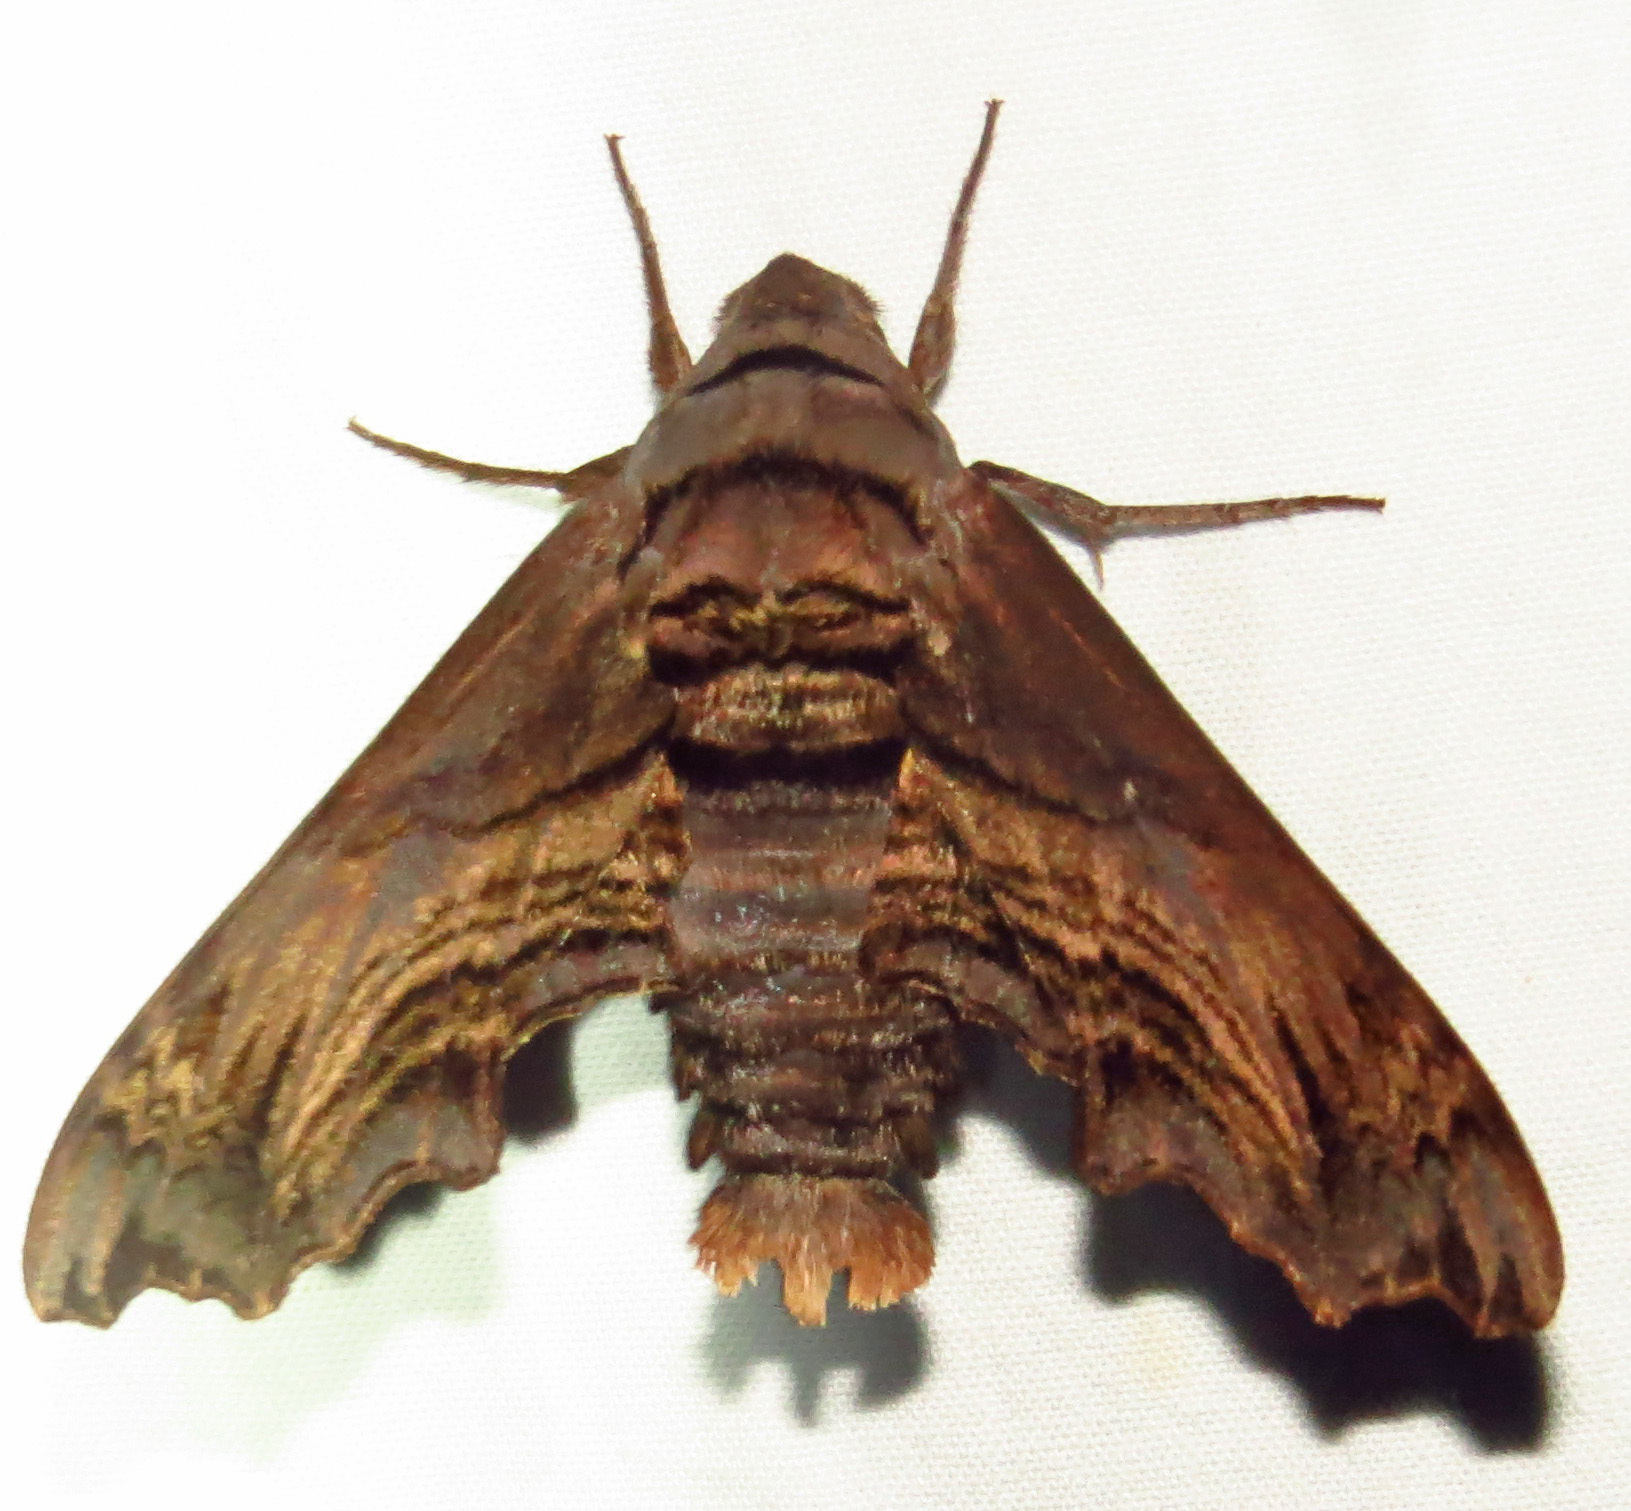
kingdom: Animalia
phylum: Arthropoda
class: Insecta
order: Lepidoptera
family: Sphingidae
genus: Sphecodina
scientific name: Sphecodina abbottii
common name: Abbott's sphinx
